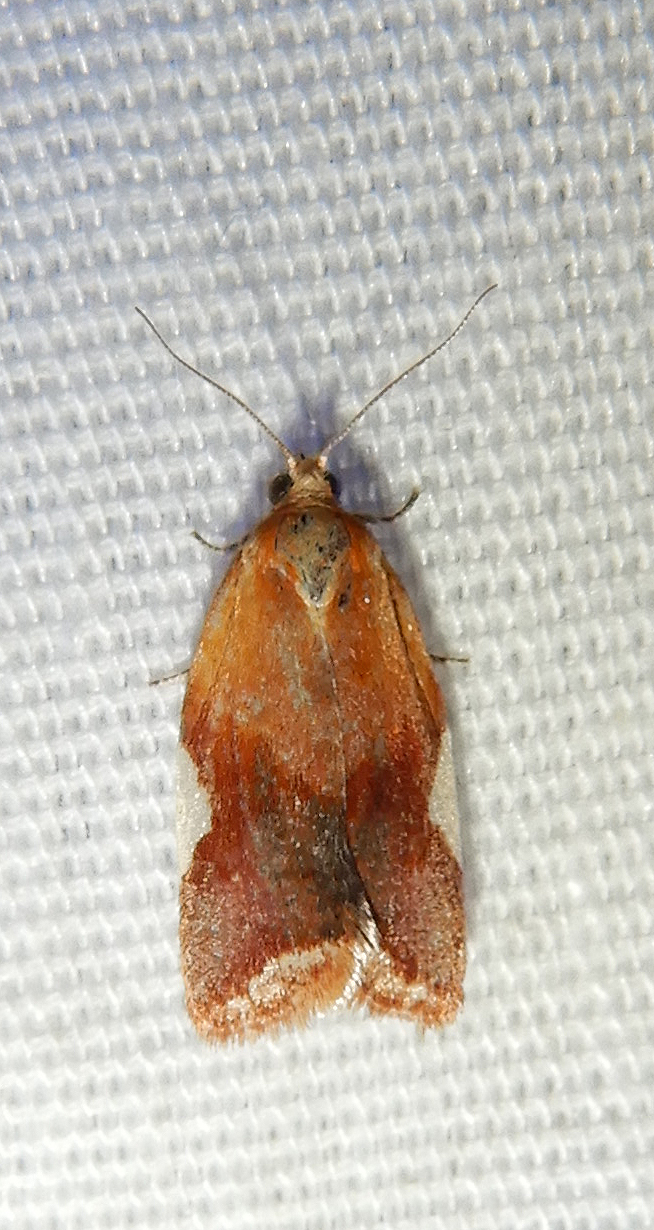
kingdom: Animalia
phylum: Arthropoda
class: Insecta
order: Lepidoptera
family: Tortricidae
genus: Clepsis
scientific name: Clepsis persicana
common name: White triangle tortrix
